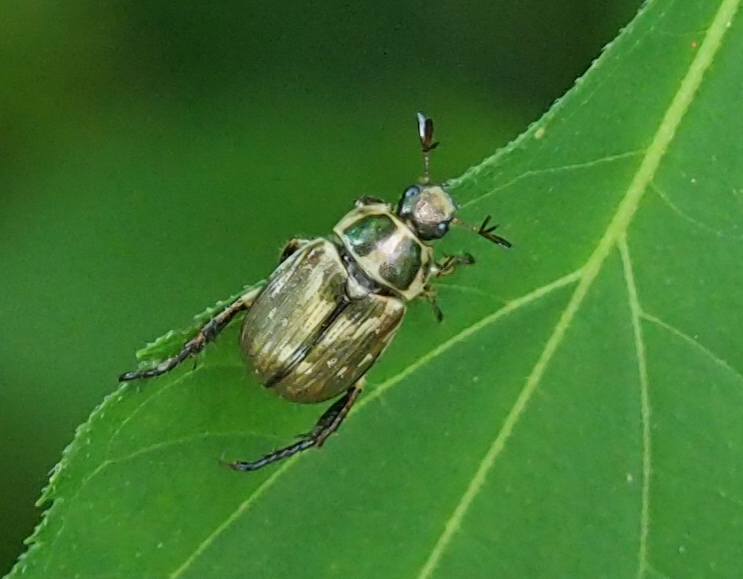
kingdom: Animalia
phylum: Arthropoda
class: Insecta
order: Coleoptera
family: Scarabaeidae
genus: Exomala
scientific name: Exomala orientalis
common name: Oriental beetle
